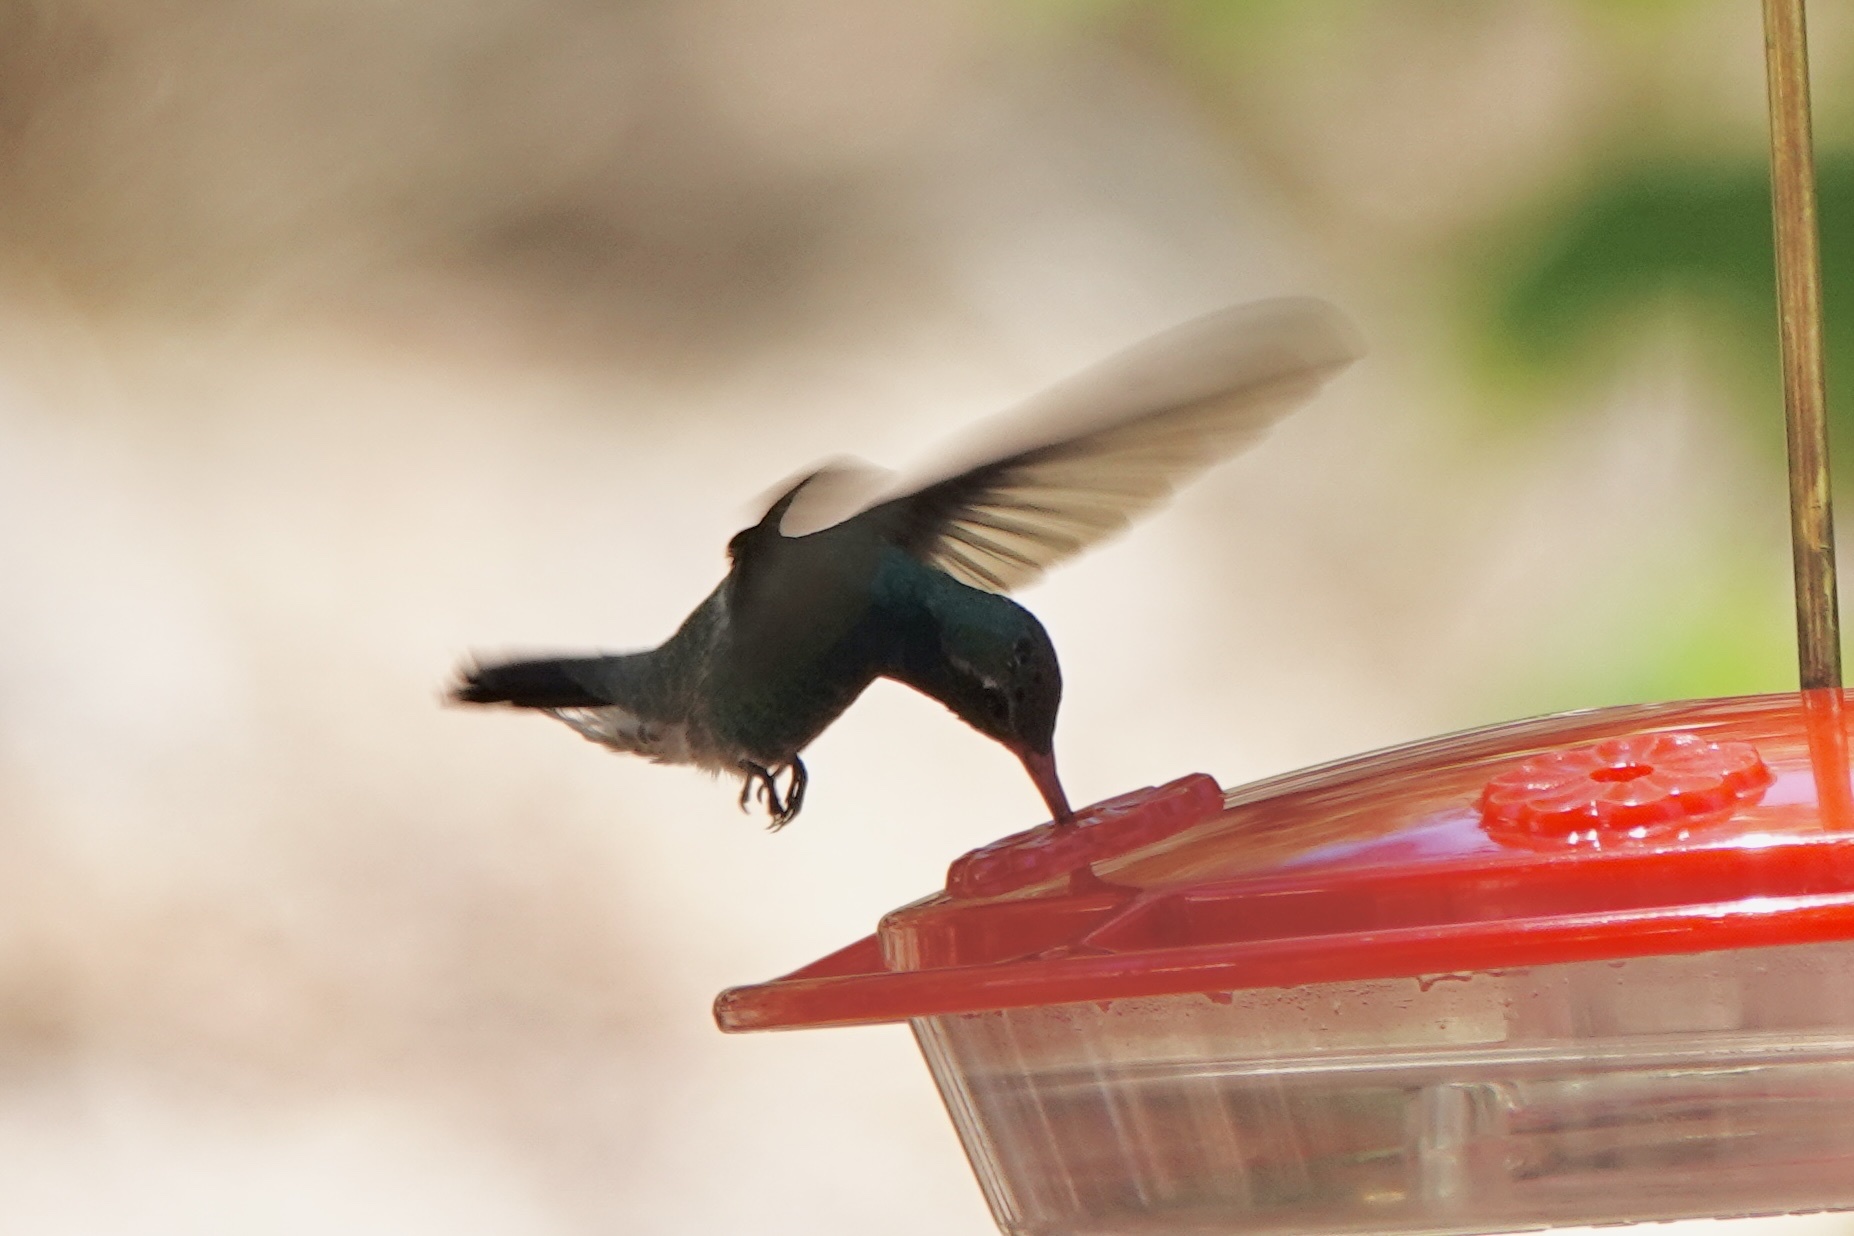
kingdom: Animalia
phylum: Chordata
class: Aves
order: Apodiformes
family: Trochilidae
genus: Cynanthus
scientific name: Cynanthus latirostris
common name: Broad-billed hummingbird
